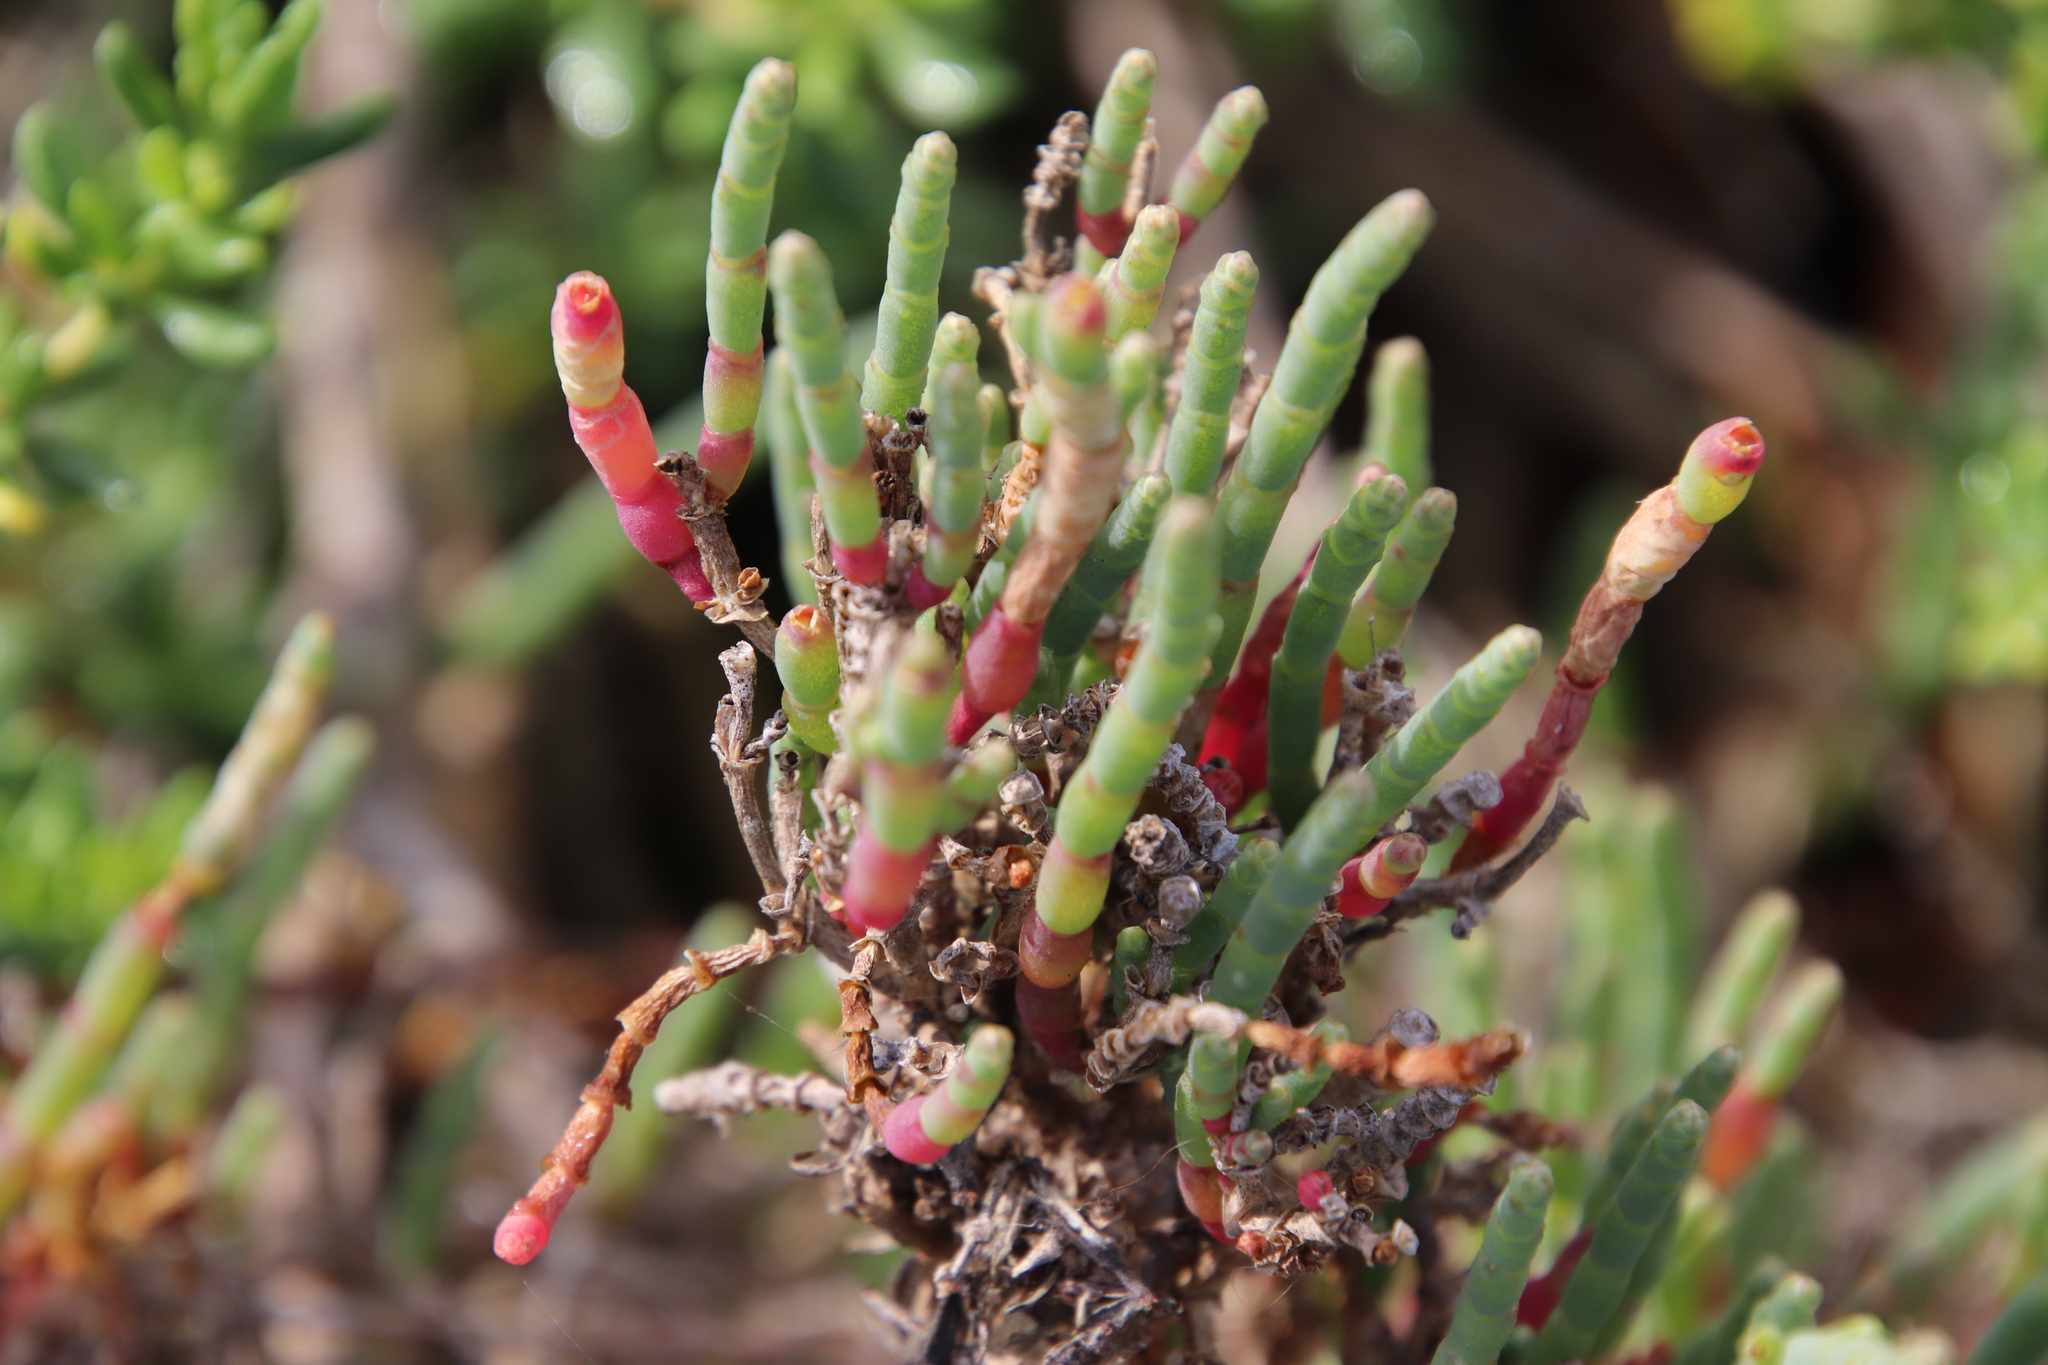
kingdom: Plantae
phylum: Tracheophyta
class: Magnoliopsida
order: Caryophyllales
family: Amaranthaceae
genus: Salicornia
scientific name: Salicornia pacifica
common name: Pacific glasswort
